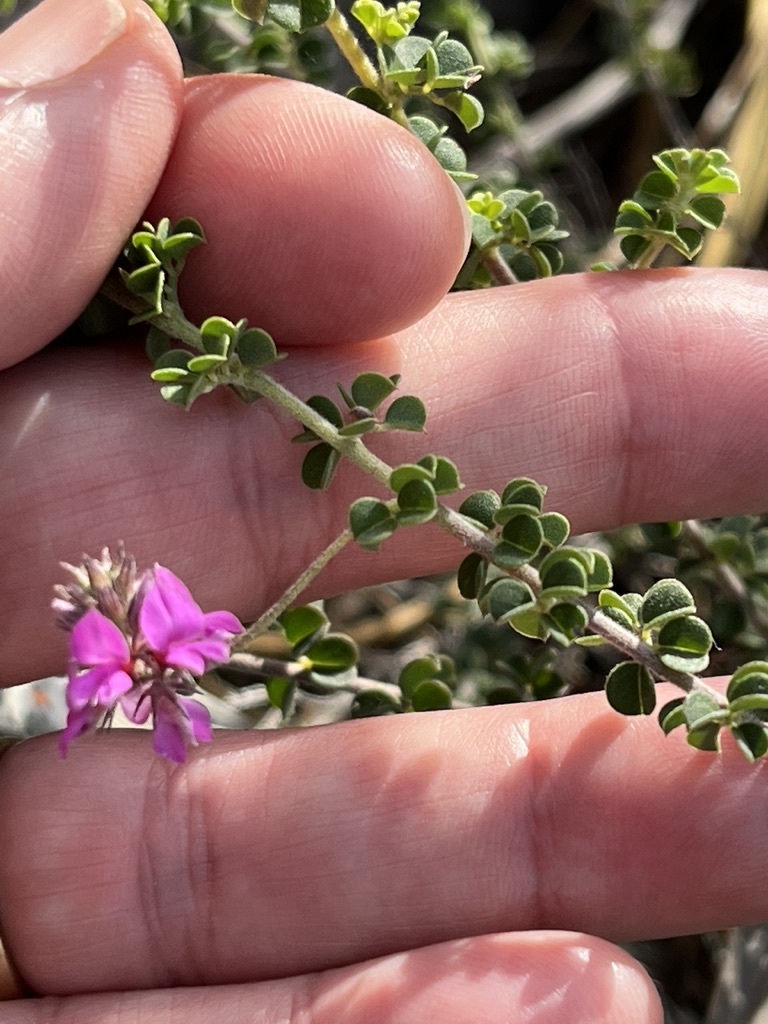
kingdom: Plantae
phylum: Tracheophyta
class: Magnoliopsida
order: Fabales
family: Fabaceae
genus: Indigofera
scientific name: Indigofera alopecuroides
